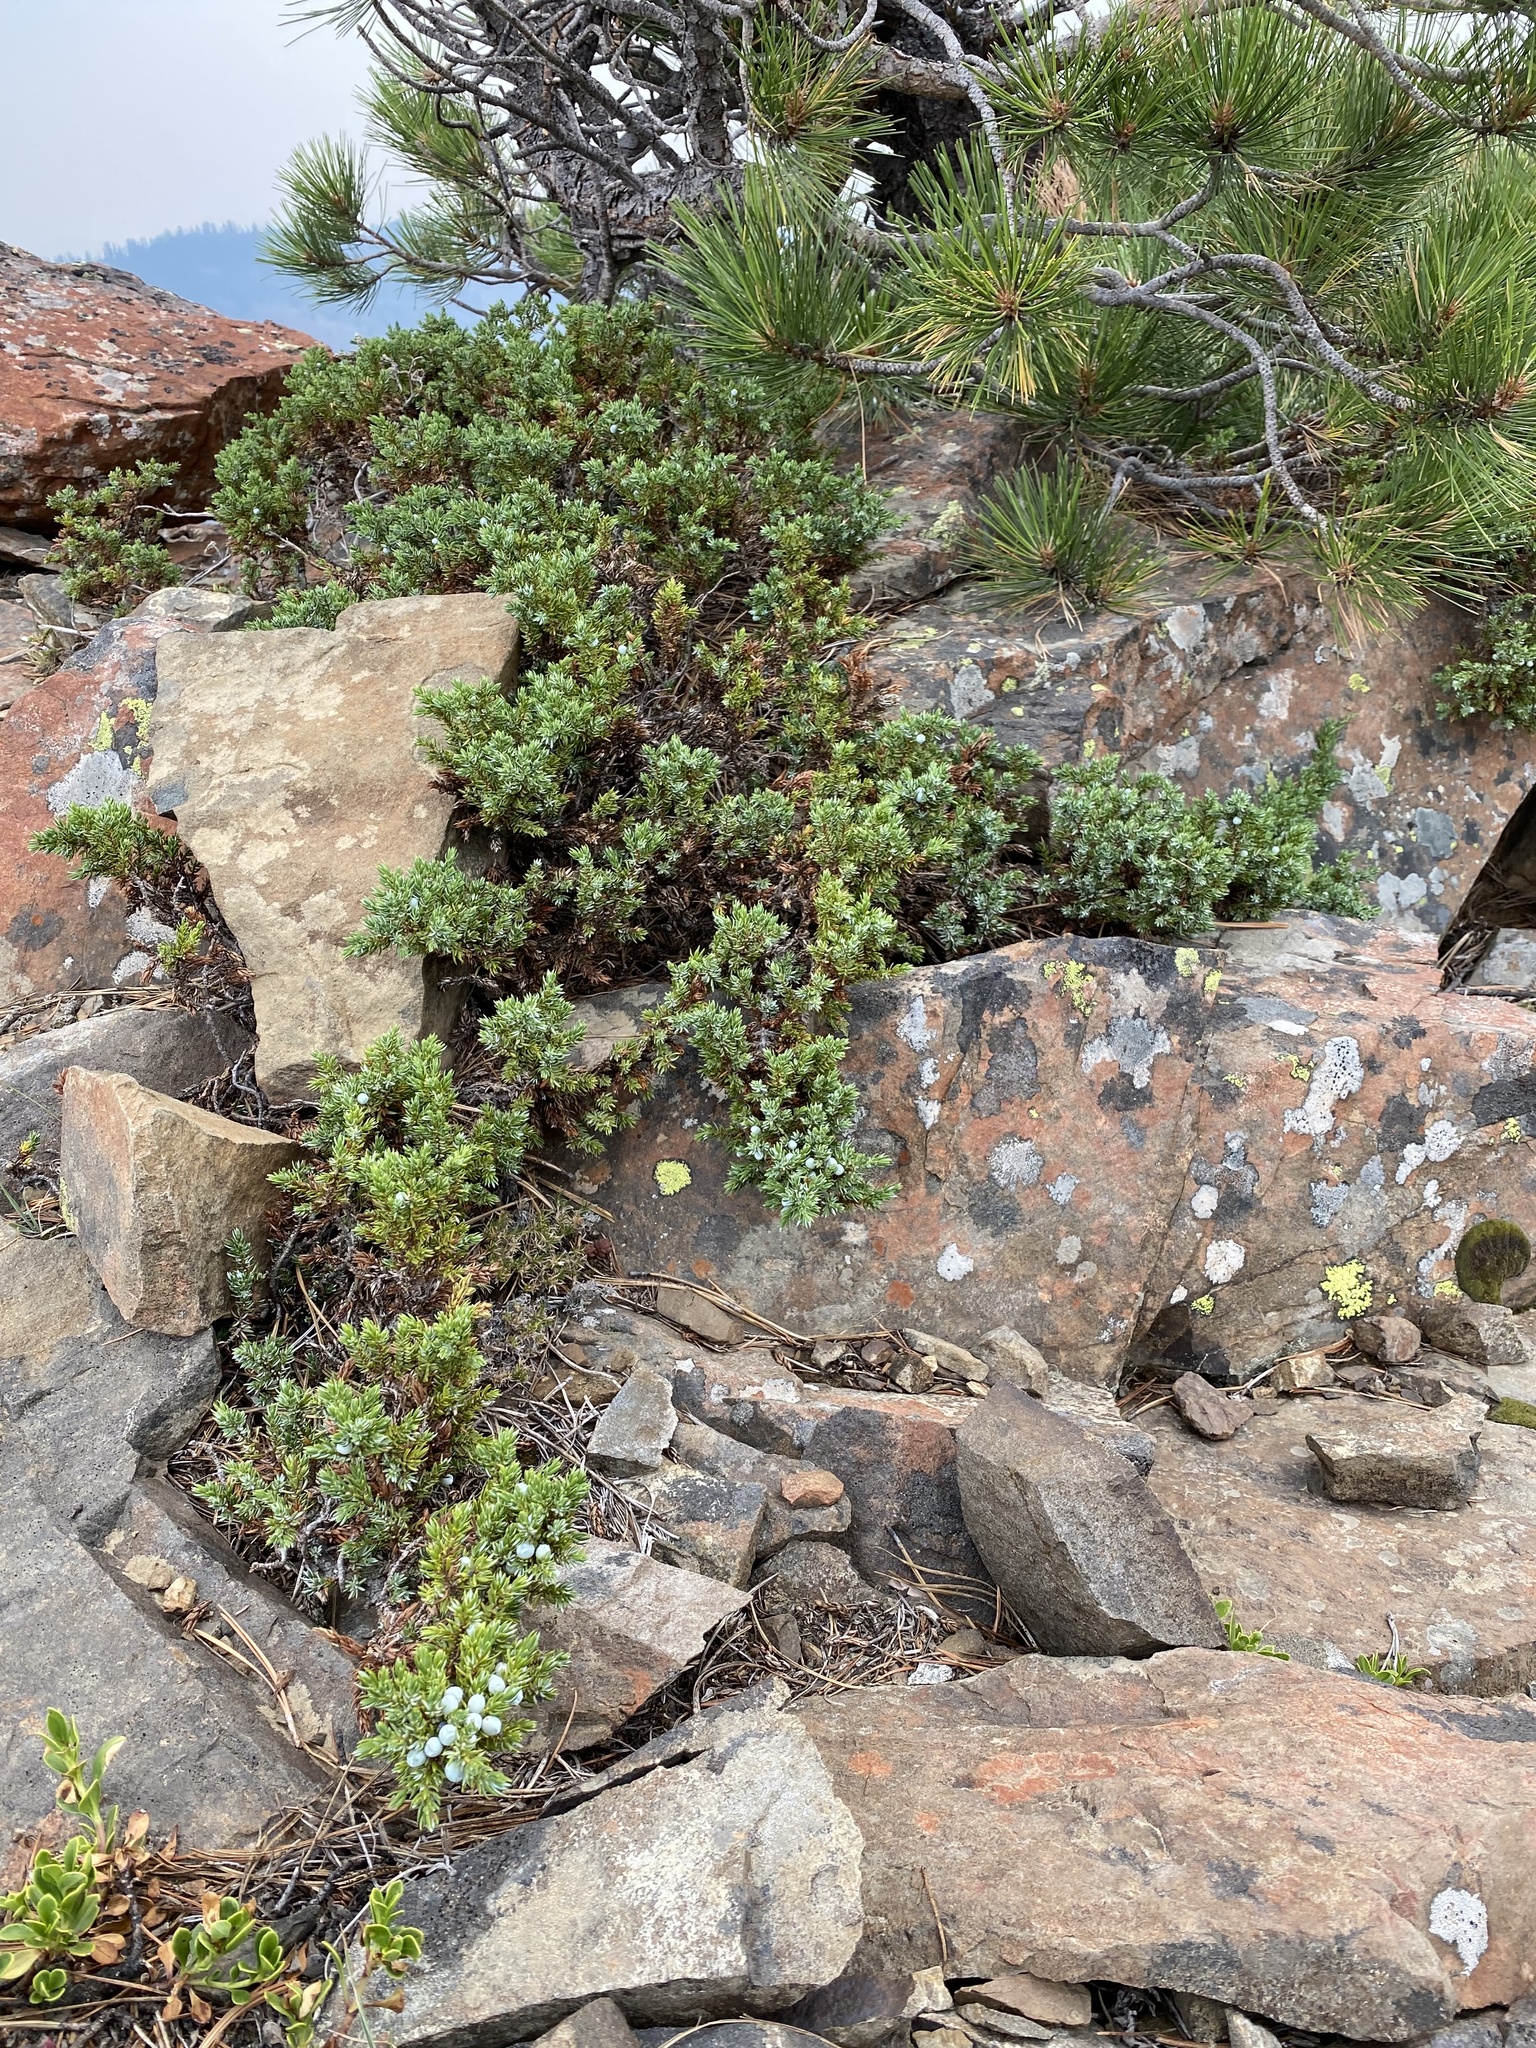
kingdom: Plantae
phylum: Tracheophyta
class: Pinopsida
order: Pinales
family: Cupressaceae
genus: Juniperus
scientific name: Juniperus communis
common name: Common juniper
